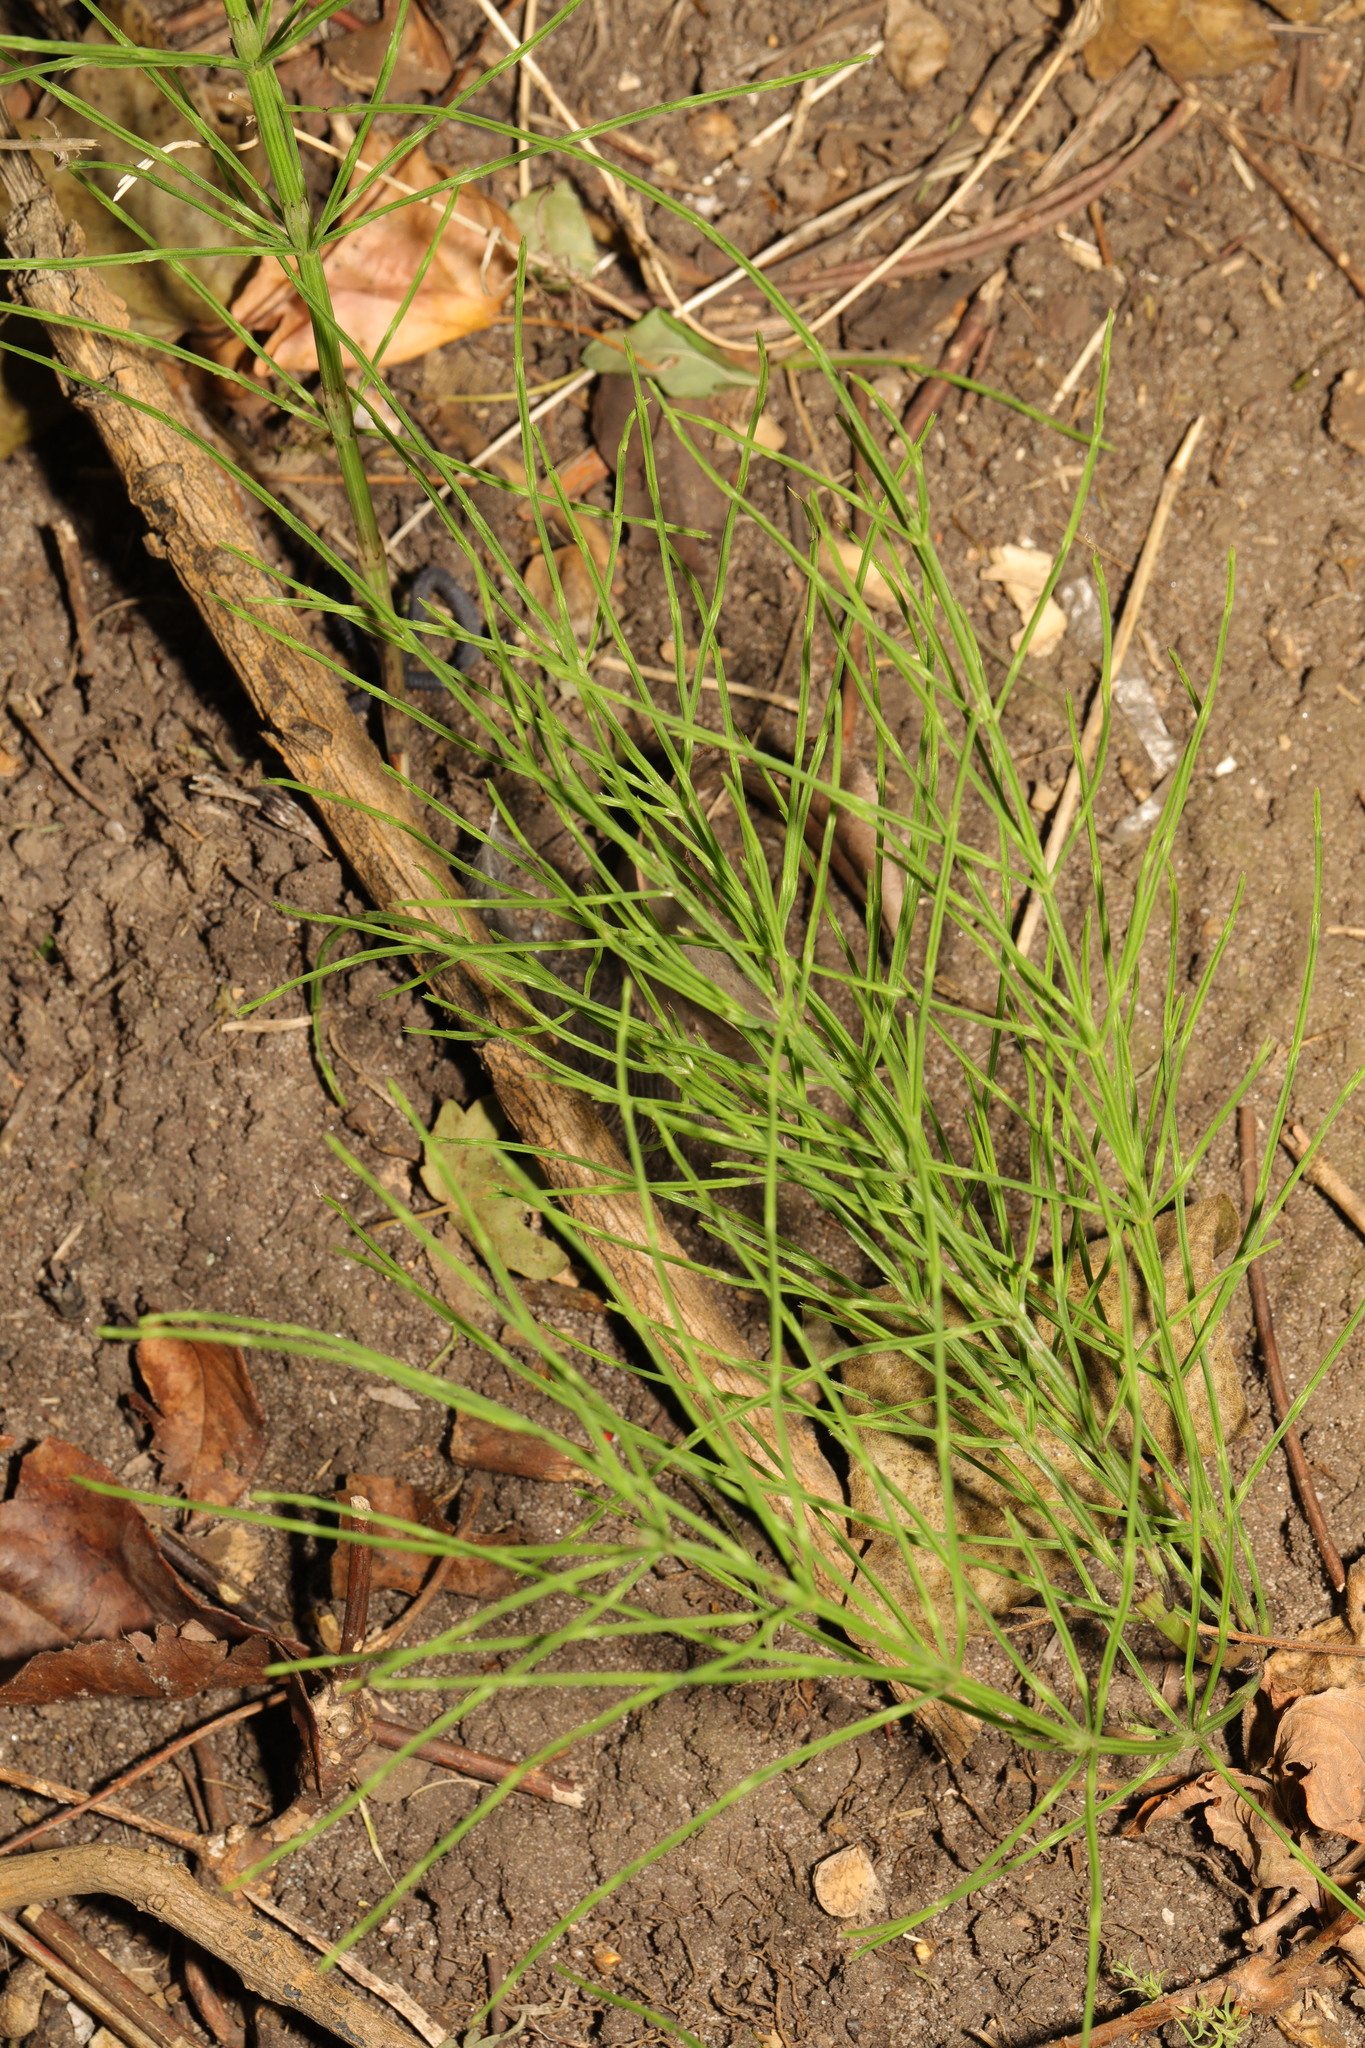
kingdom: Plantae
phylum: Tracheophyta
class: Polypodiopsida
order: Equisetales
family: Equisetaceae
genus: Equisetum
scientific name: Equisetum arvense
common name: Field horsetail
